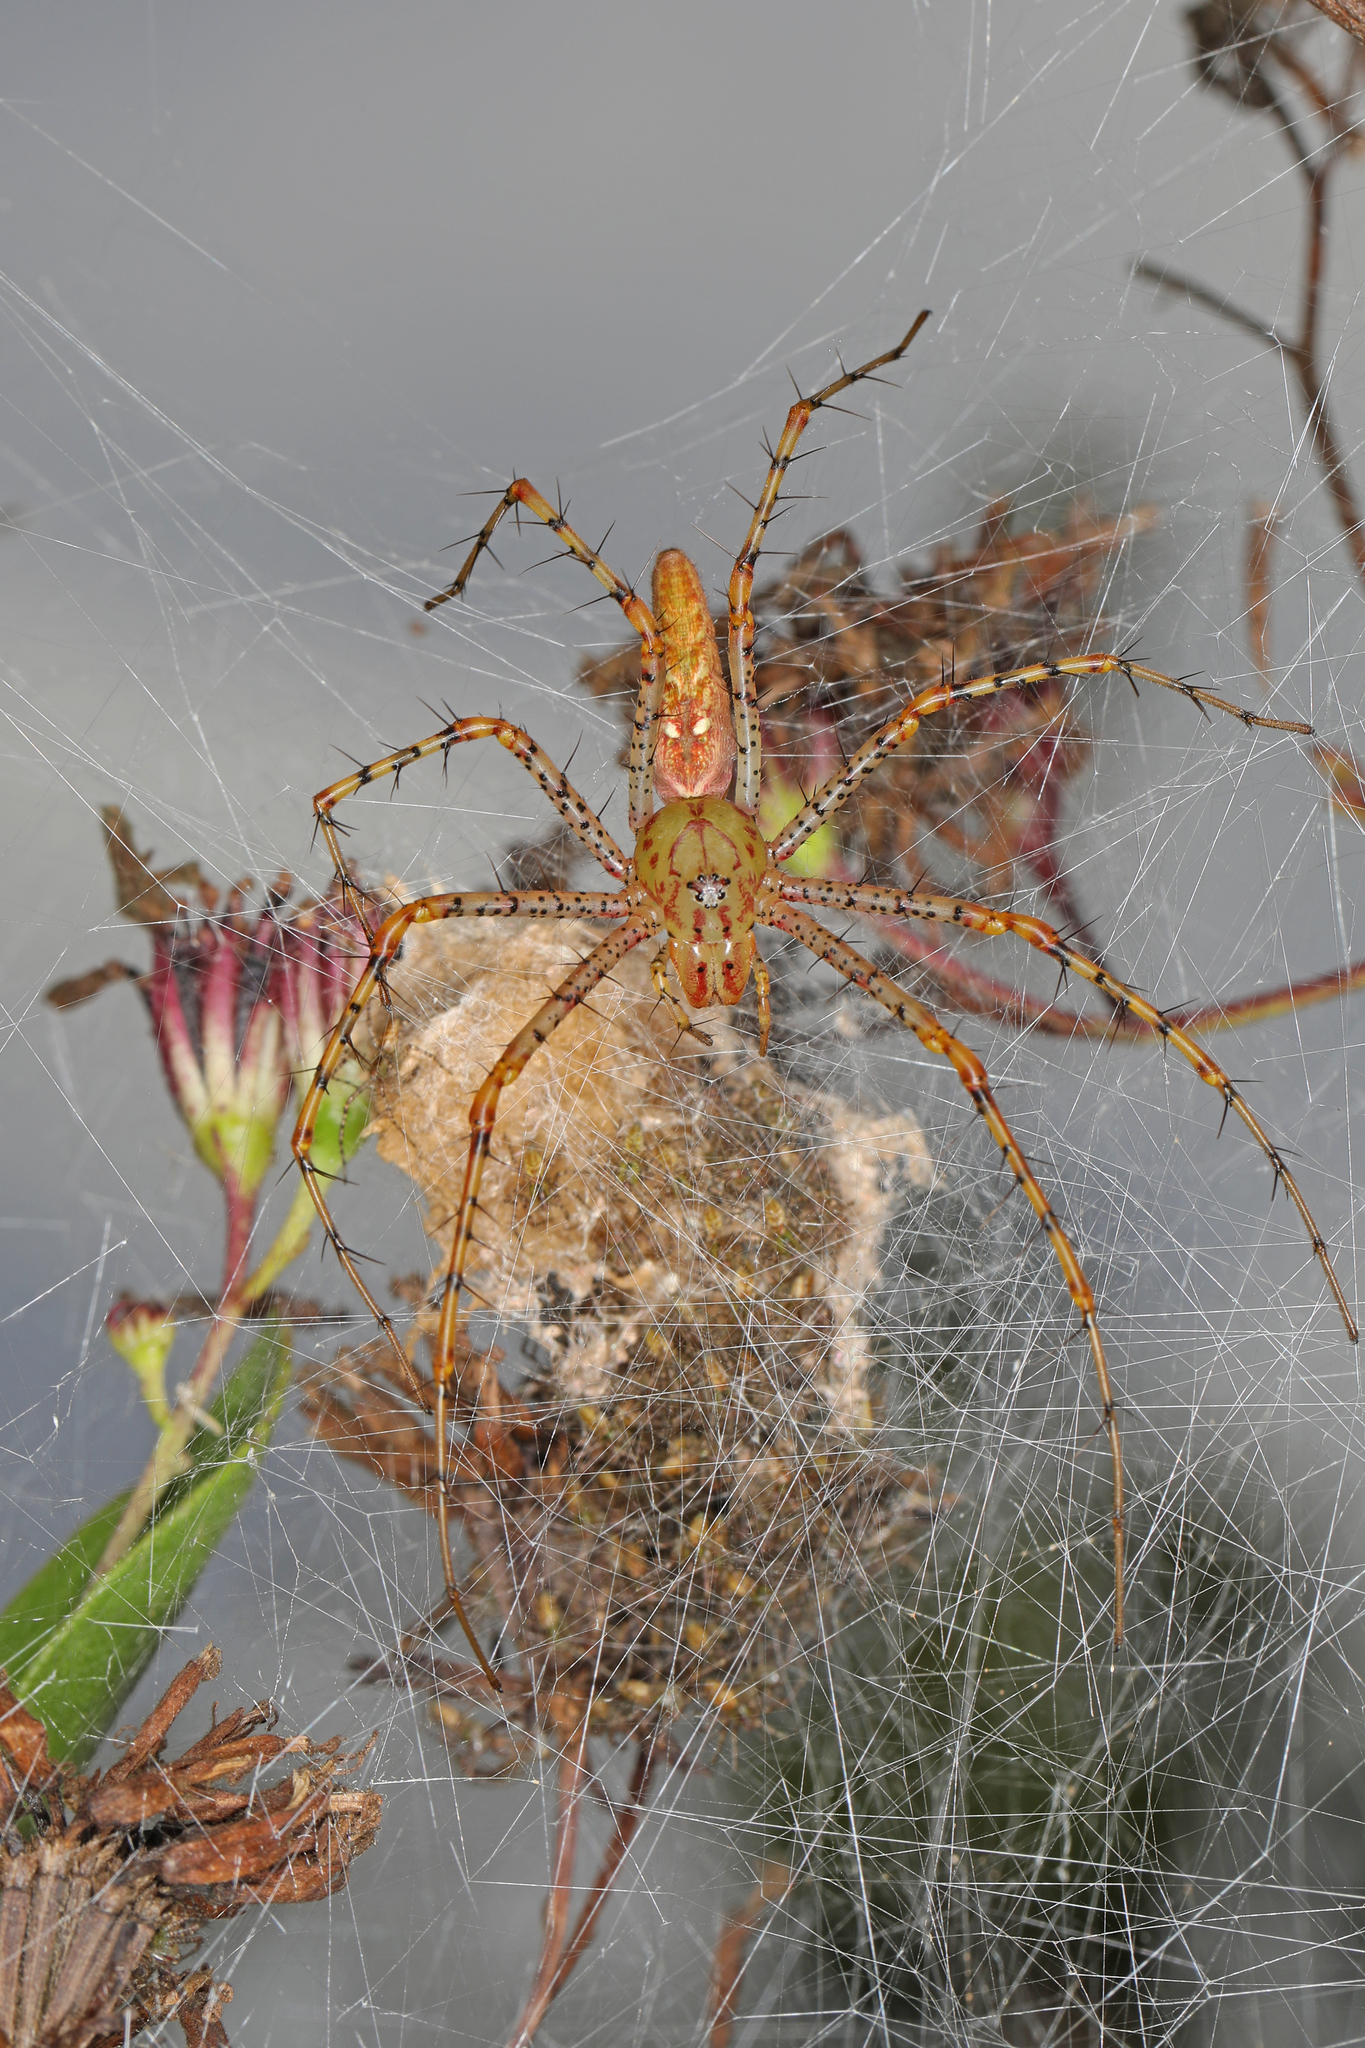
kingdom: Animalia
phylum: Arthropoda
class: Arachnida
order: Araneae
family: Oxyopidae
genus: Peucetia
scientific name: Peucetia viridans
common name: Lynx spiders
